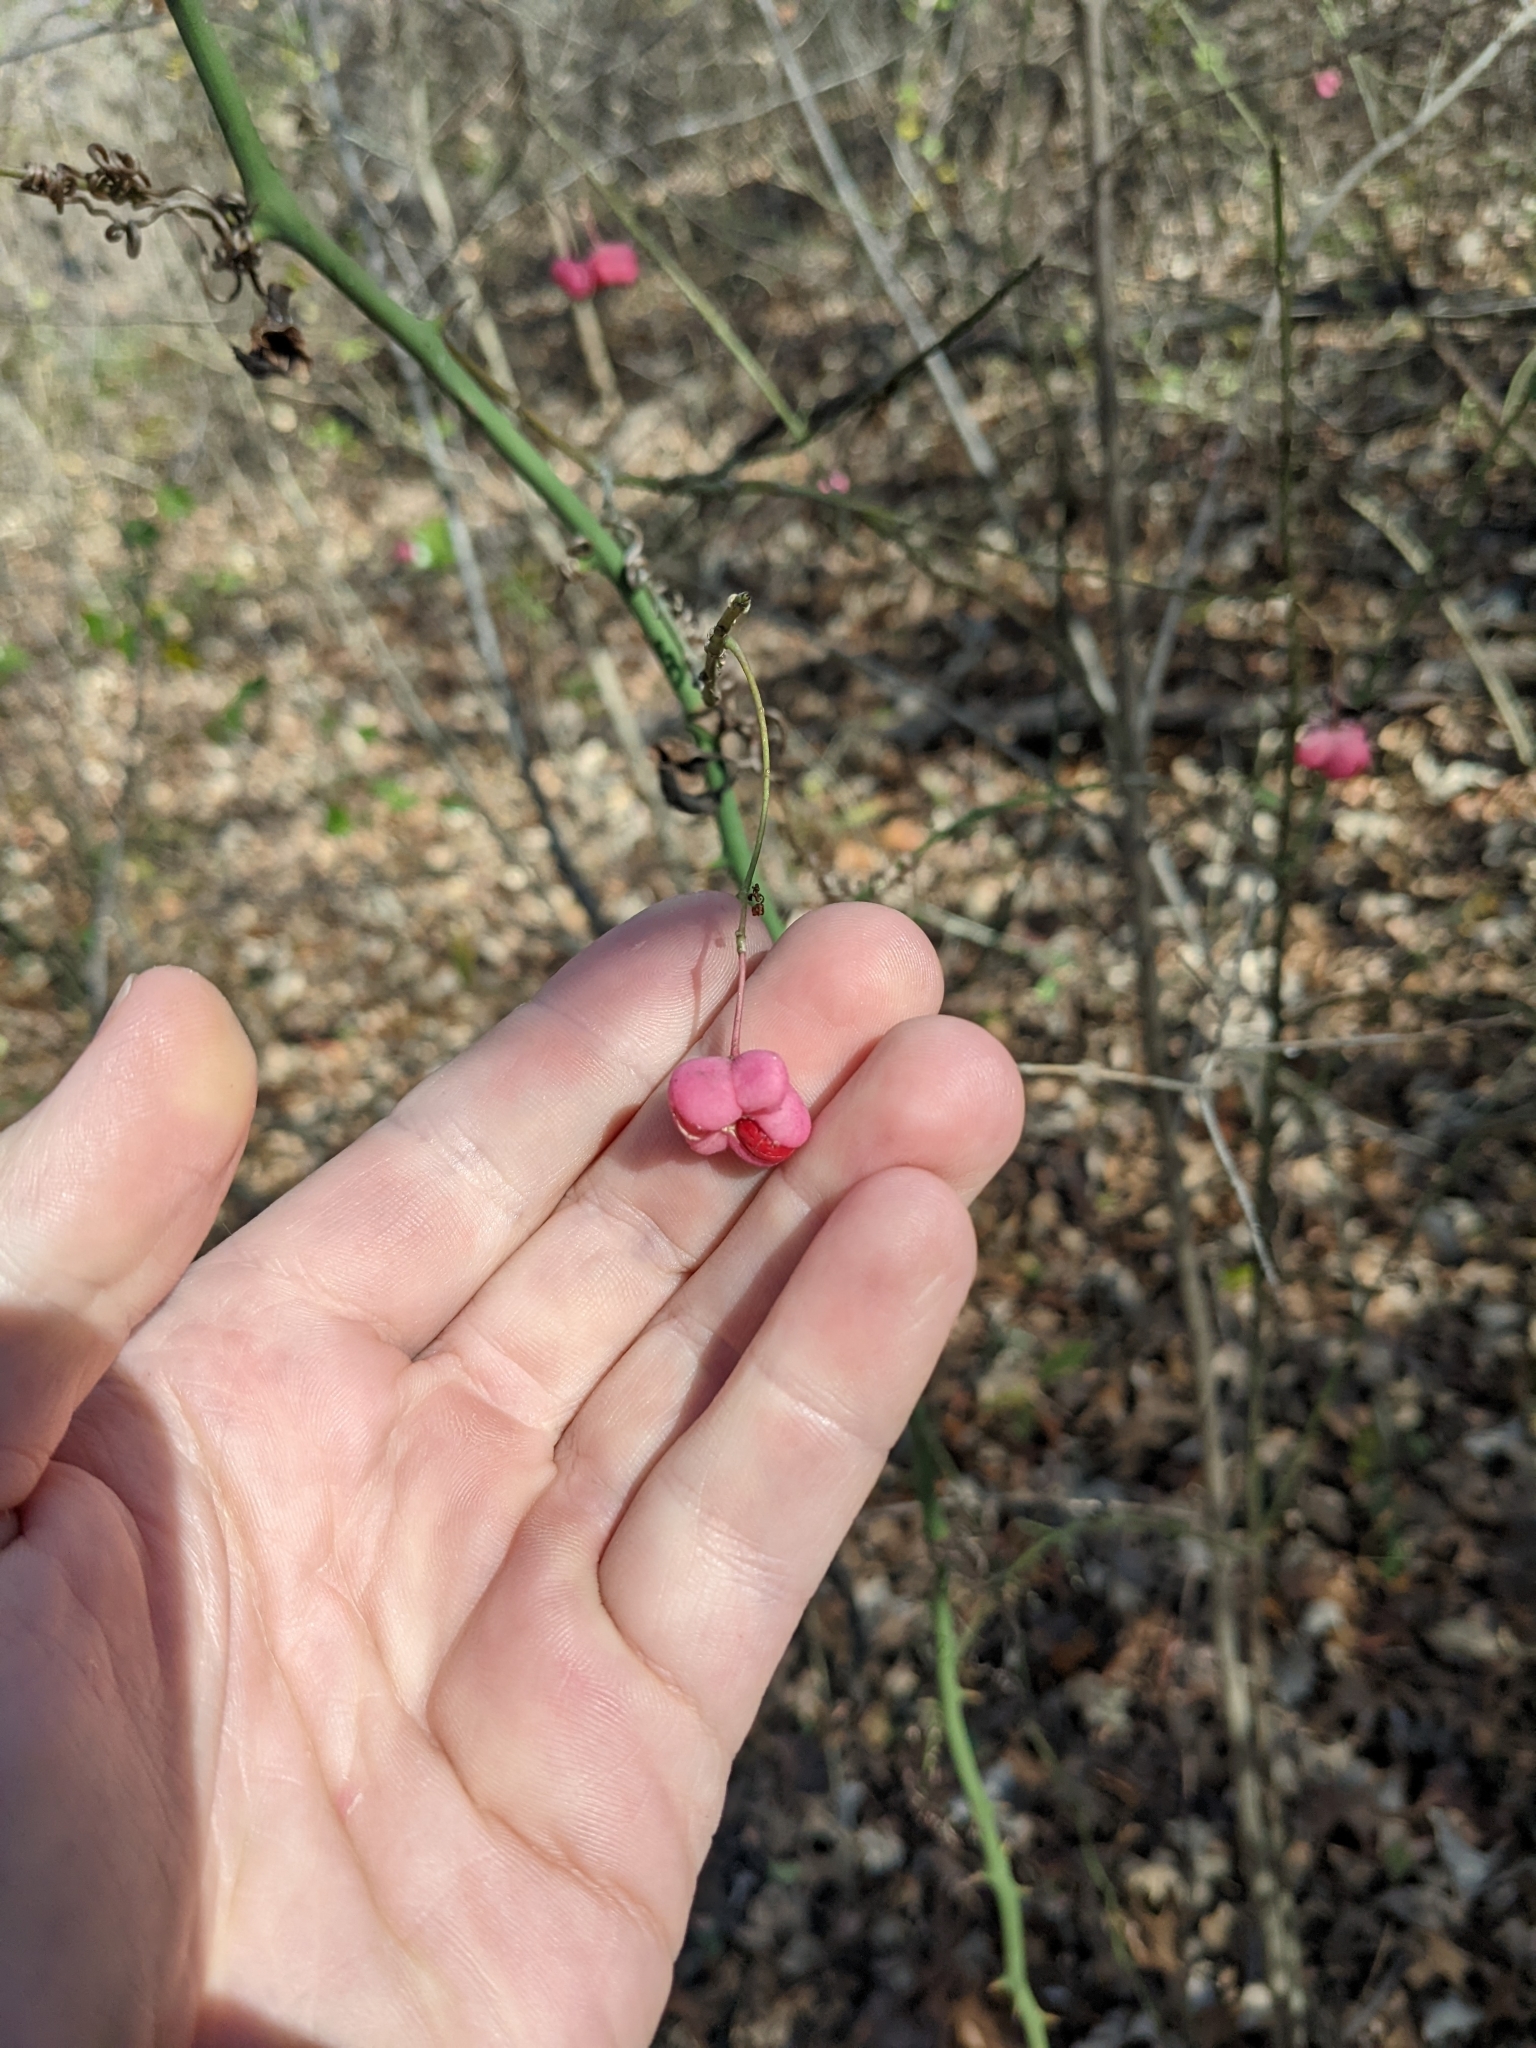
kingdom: Plantae
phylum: Tracheophyta
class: Magnoliopsida
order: Celastrales
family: Celastraceae
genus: Euonymus
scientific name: Euonymus atropurpureus
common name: Eastern wahoo
